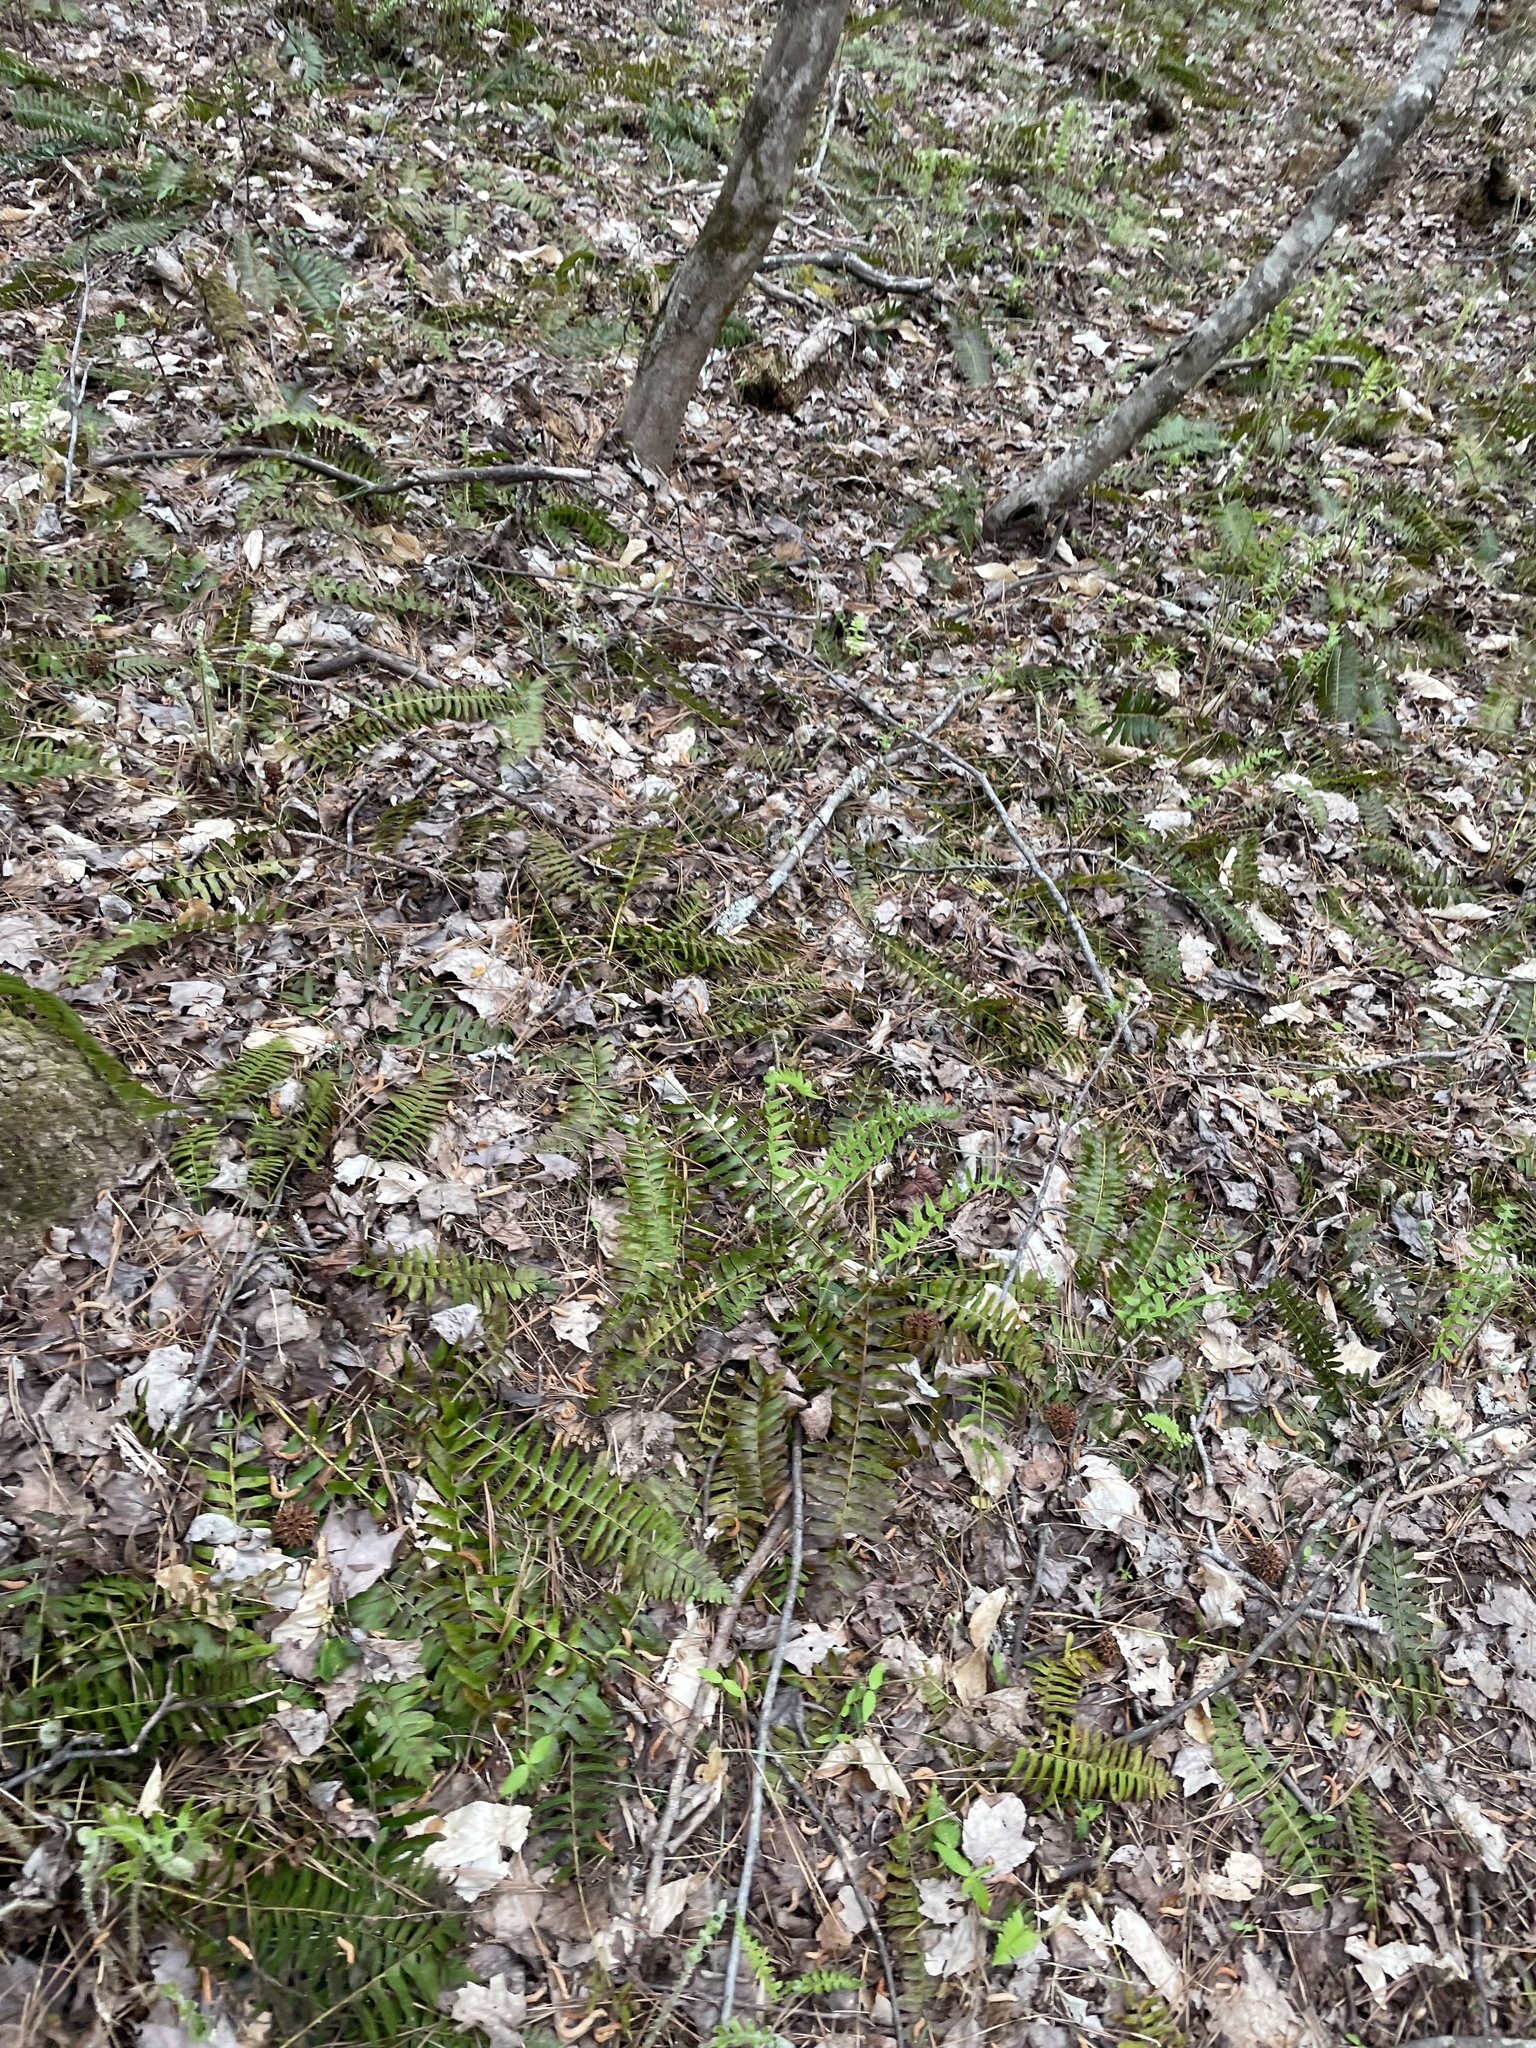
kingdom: Plantae
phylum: Tracheophyta
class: Polypodiopsida
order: Polypodiales
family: Dryopteridaceae
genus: Polystichum
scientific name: Polystichum acrostichoides
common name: Christmas fern
